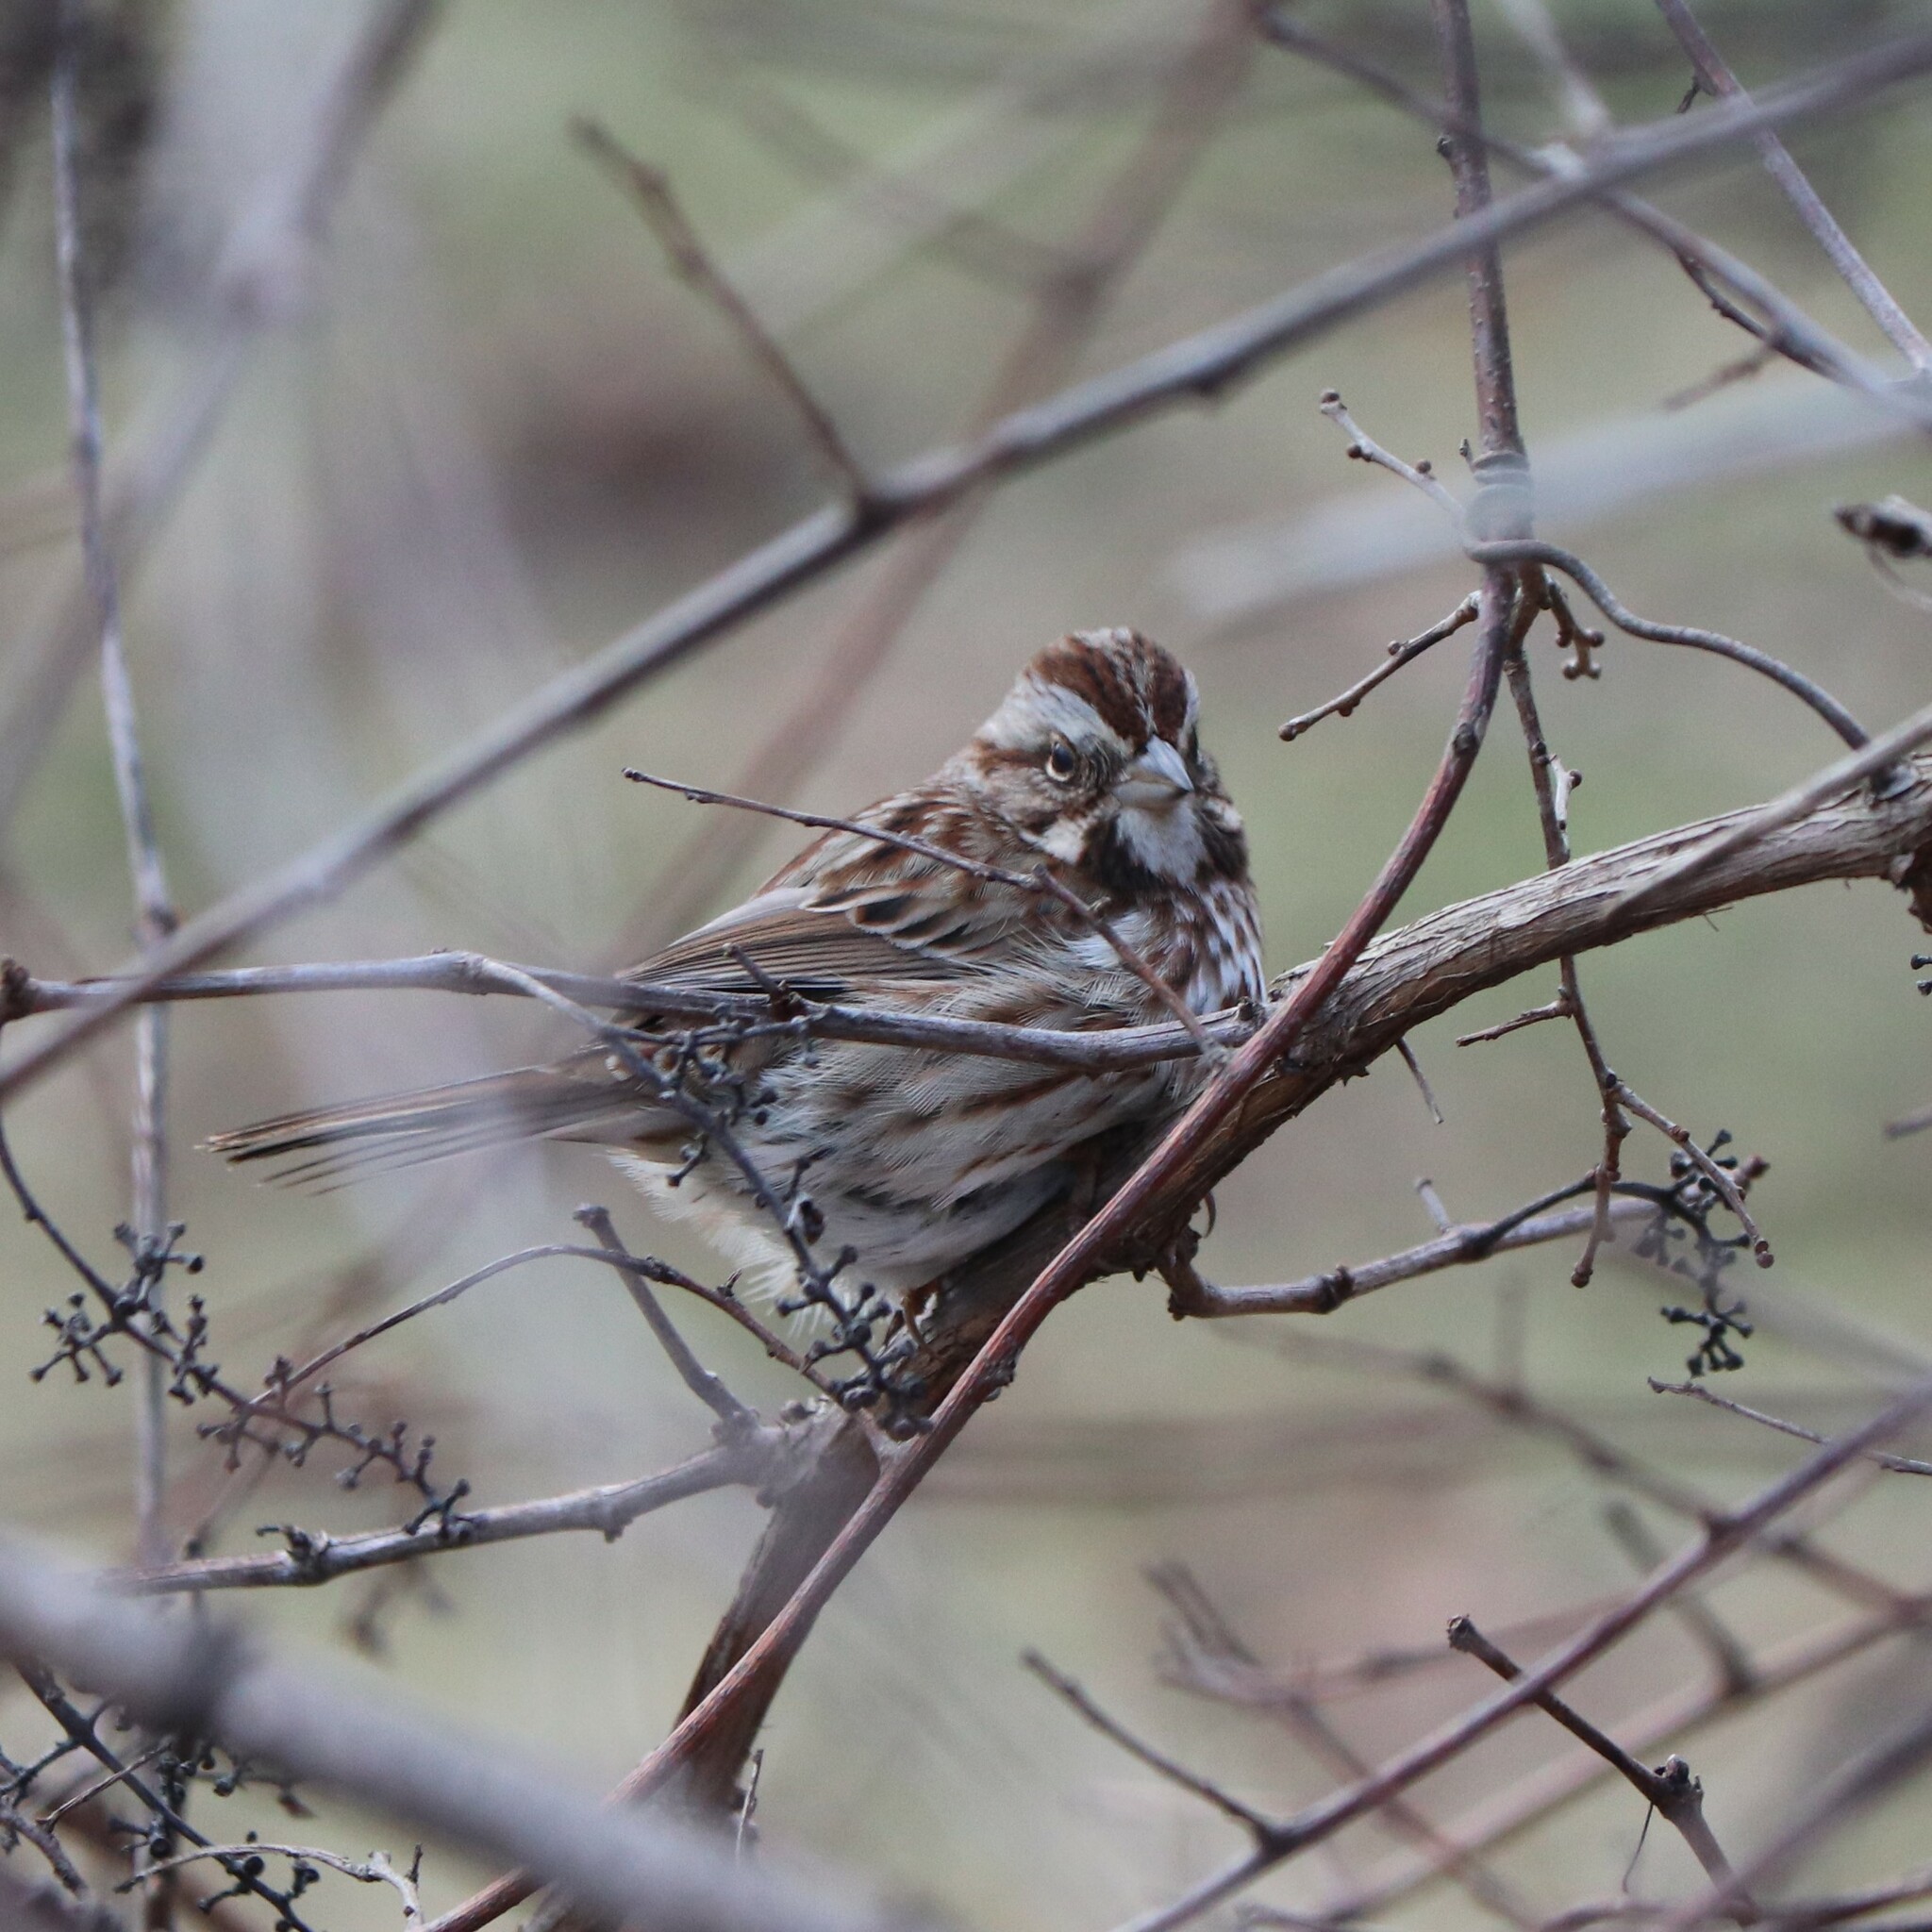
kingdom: Animalia
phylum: Chordata
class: Aves
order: Passeriformes
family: Passerellidae
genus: Melospiza
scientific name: Melospiza melodia
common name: Song sparrow
